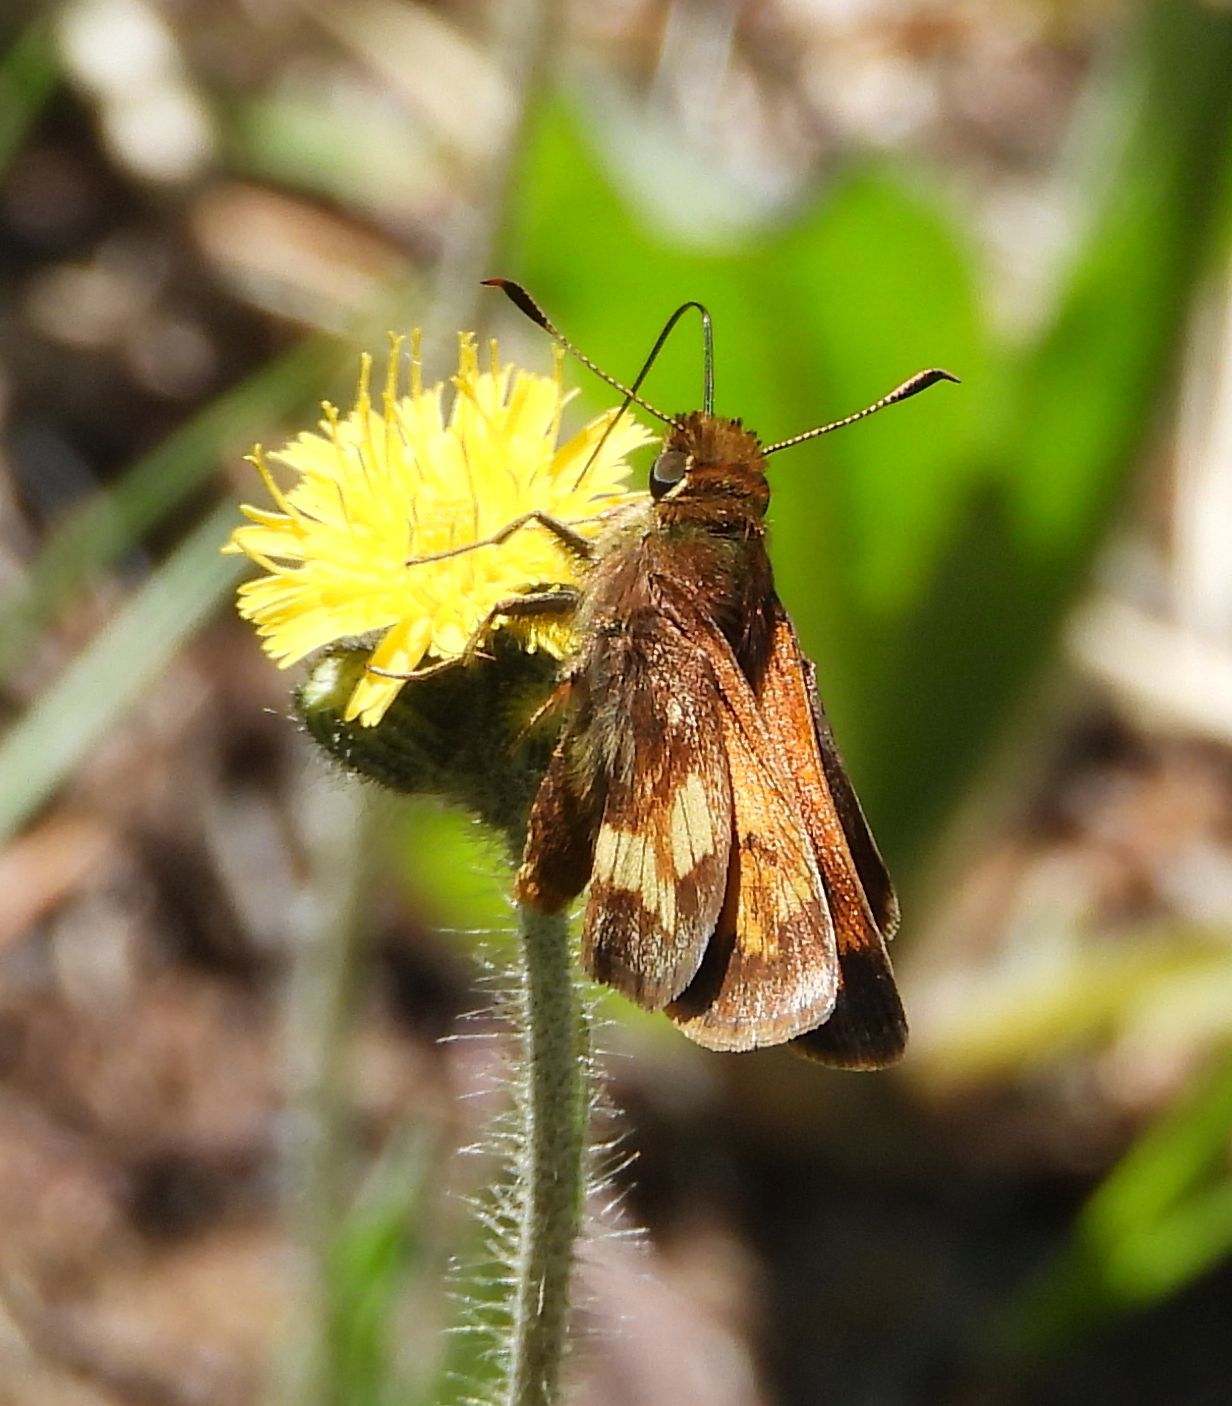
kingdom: Animalia
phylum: Arthropoda
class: Insecta
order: Lepidoptera
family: Hesperiidae
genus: Lon
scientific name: Lon hobomok
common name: Hobomok skipper
